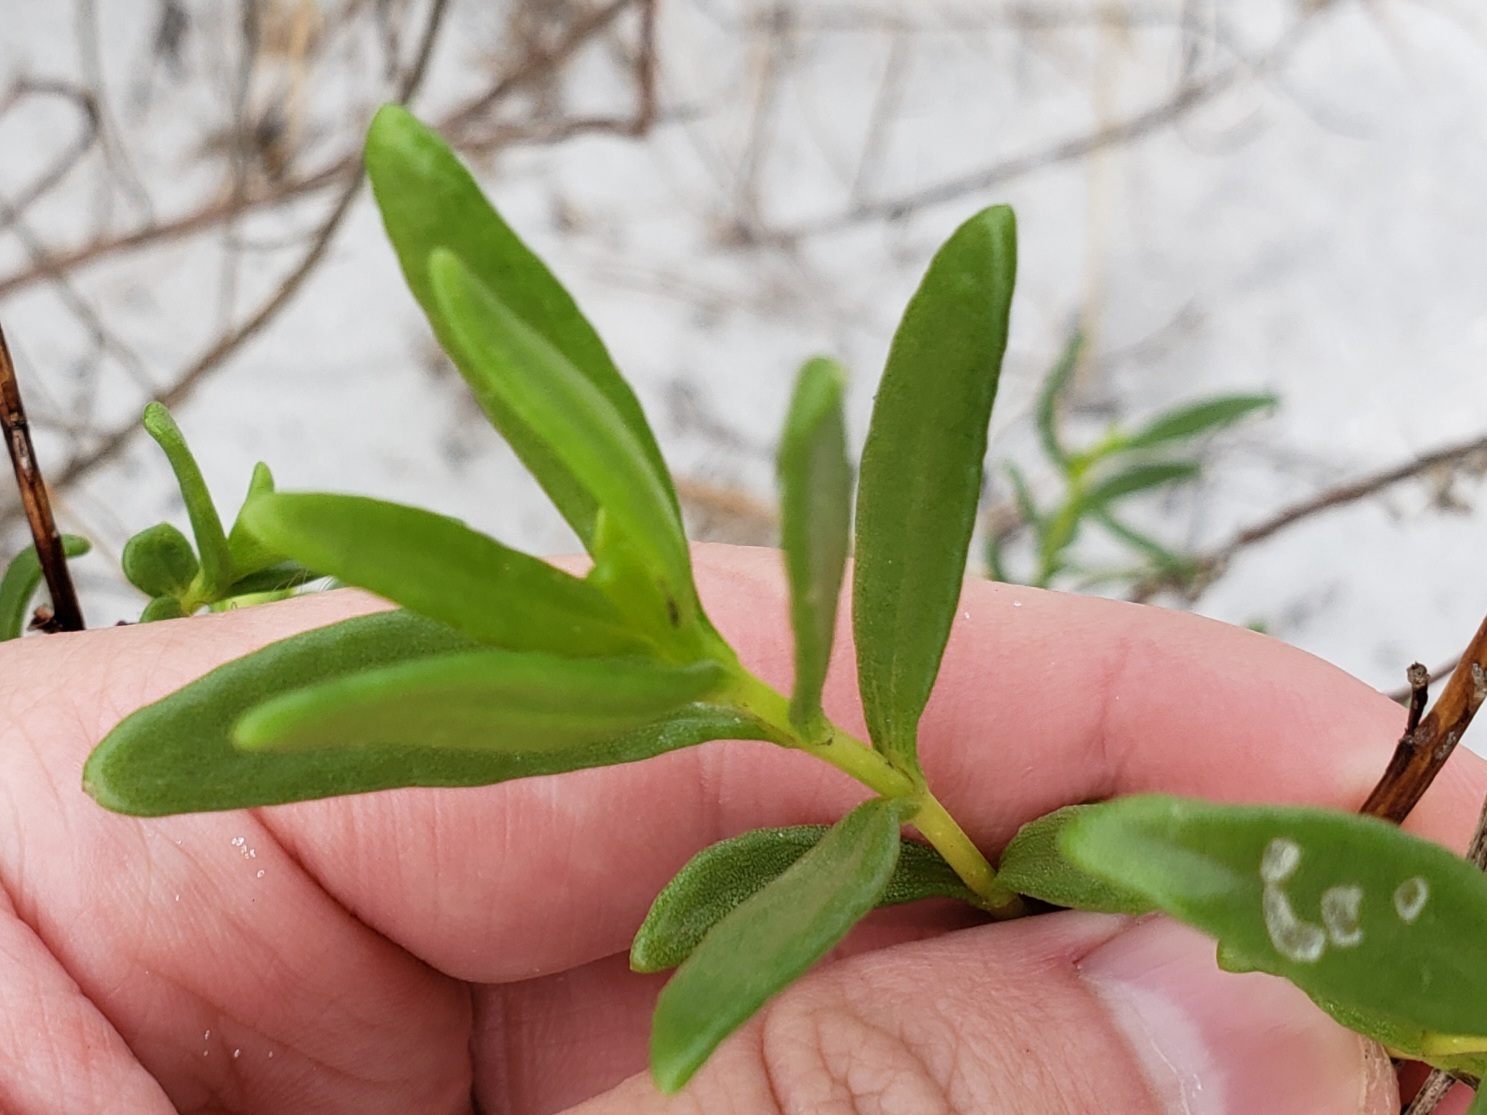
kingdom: Plantae
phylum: Tracheophyta
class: Magnoliopsida
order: Asterales
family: Asteraceae
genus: Iva
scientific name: Iva imbricata
